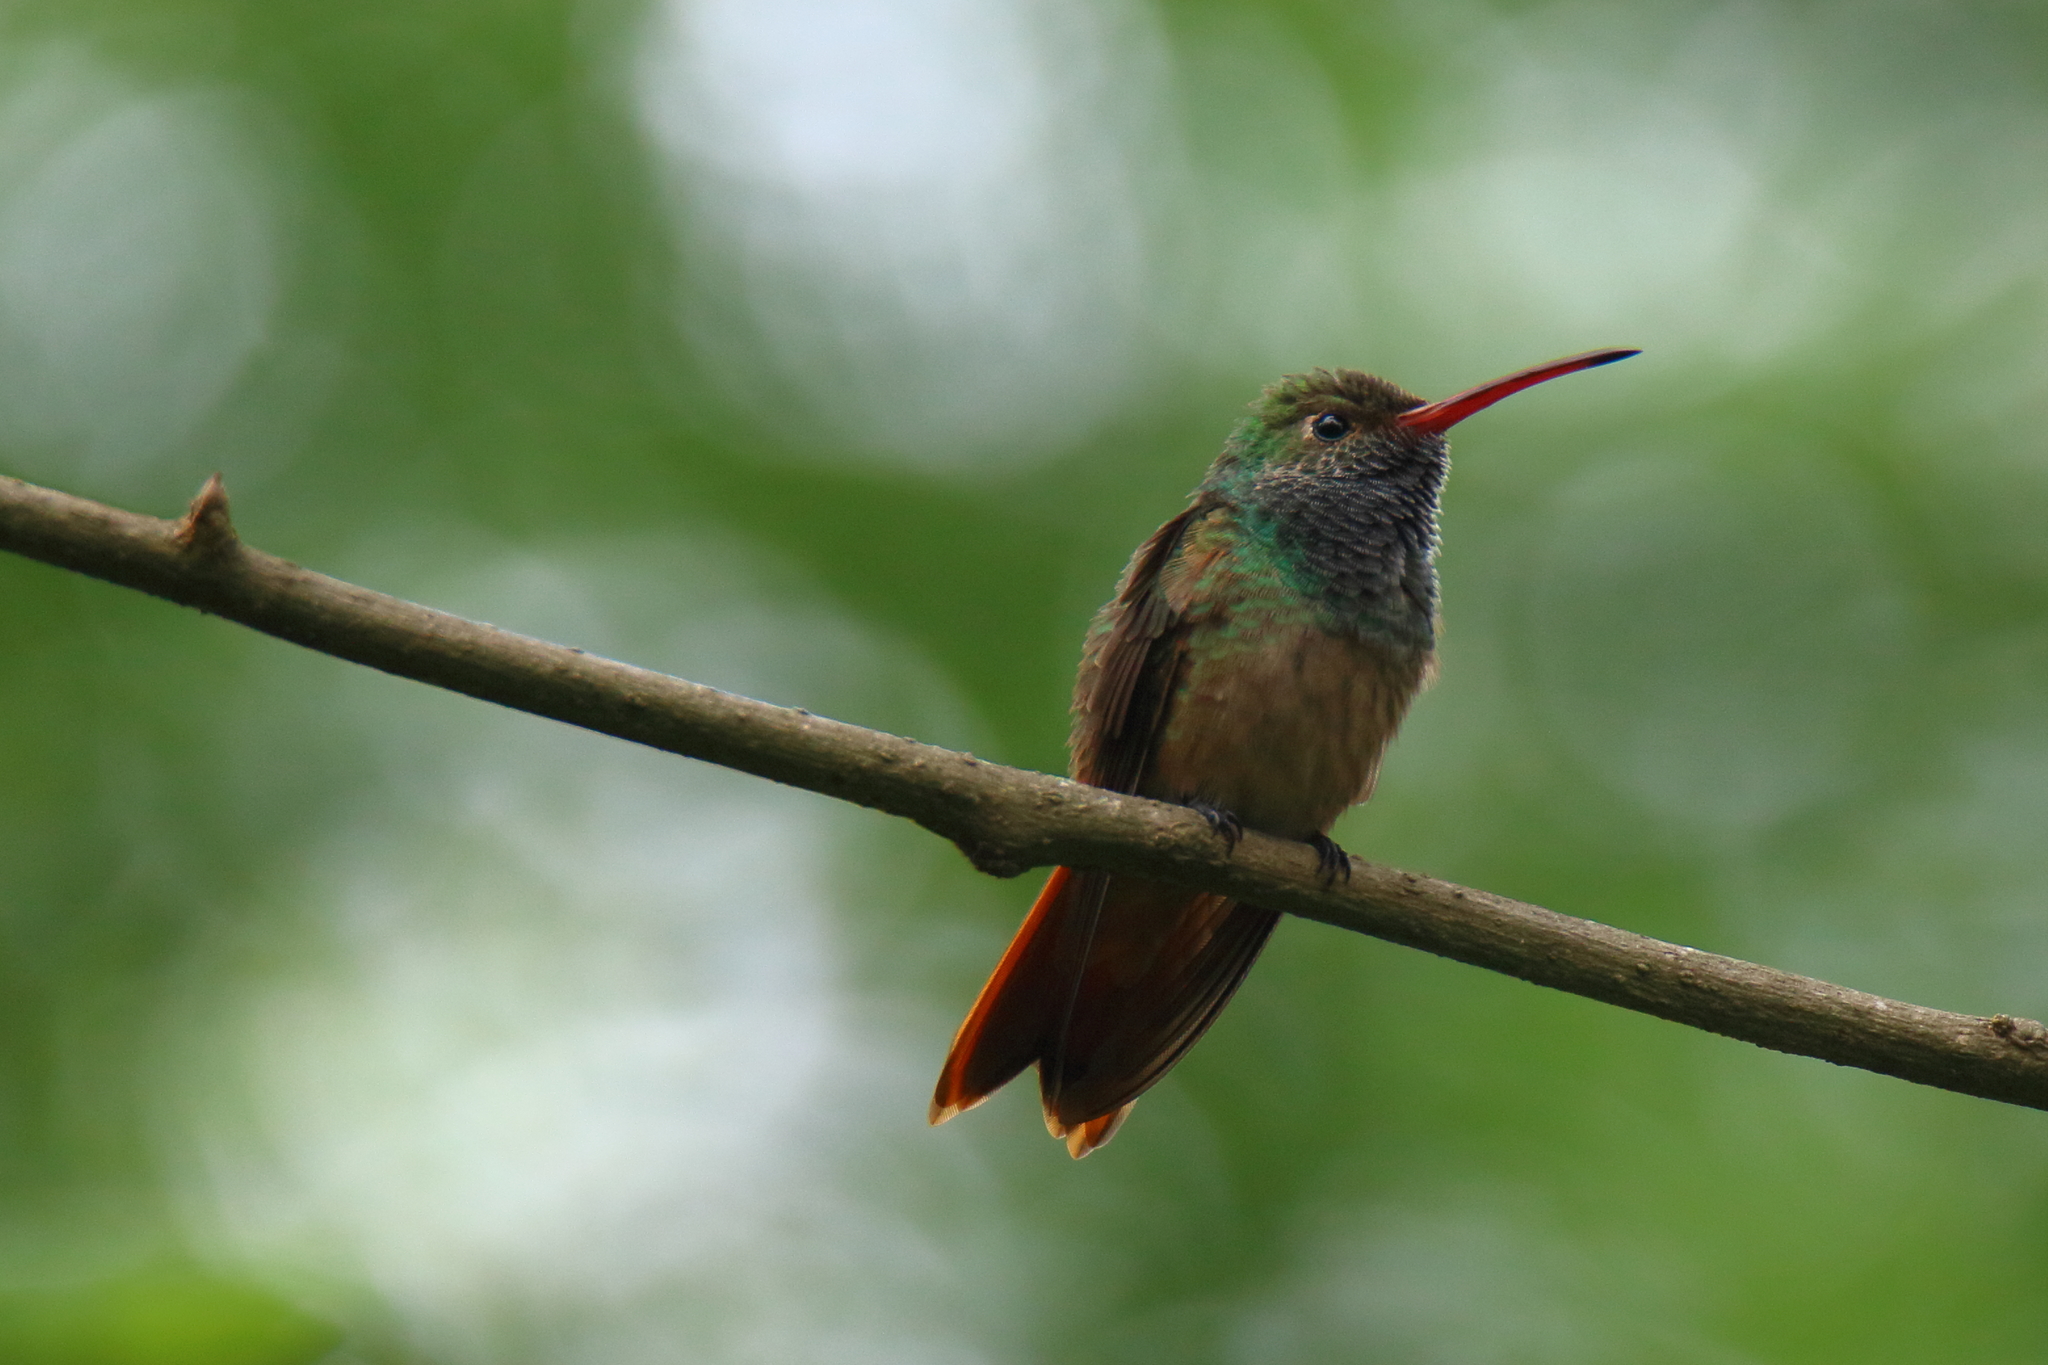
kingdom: Animalia
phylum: Chordata
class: Aves
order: Apodiformes
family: Trochilidae
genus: Amazilia
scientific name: Amazilia yucatanensis
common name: Buff-bellied hummingbird
